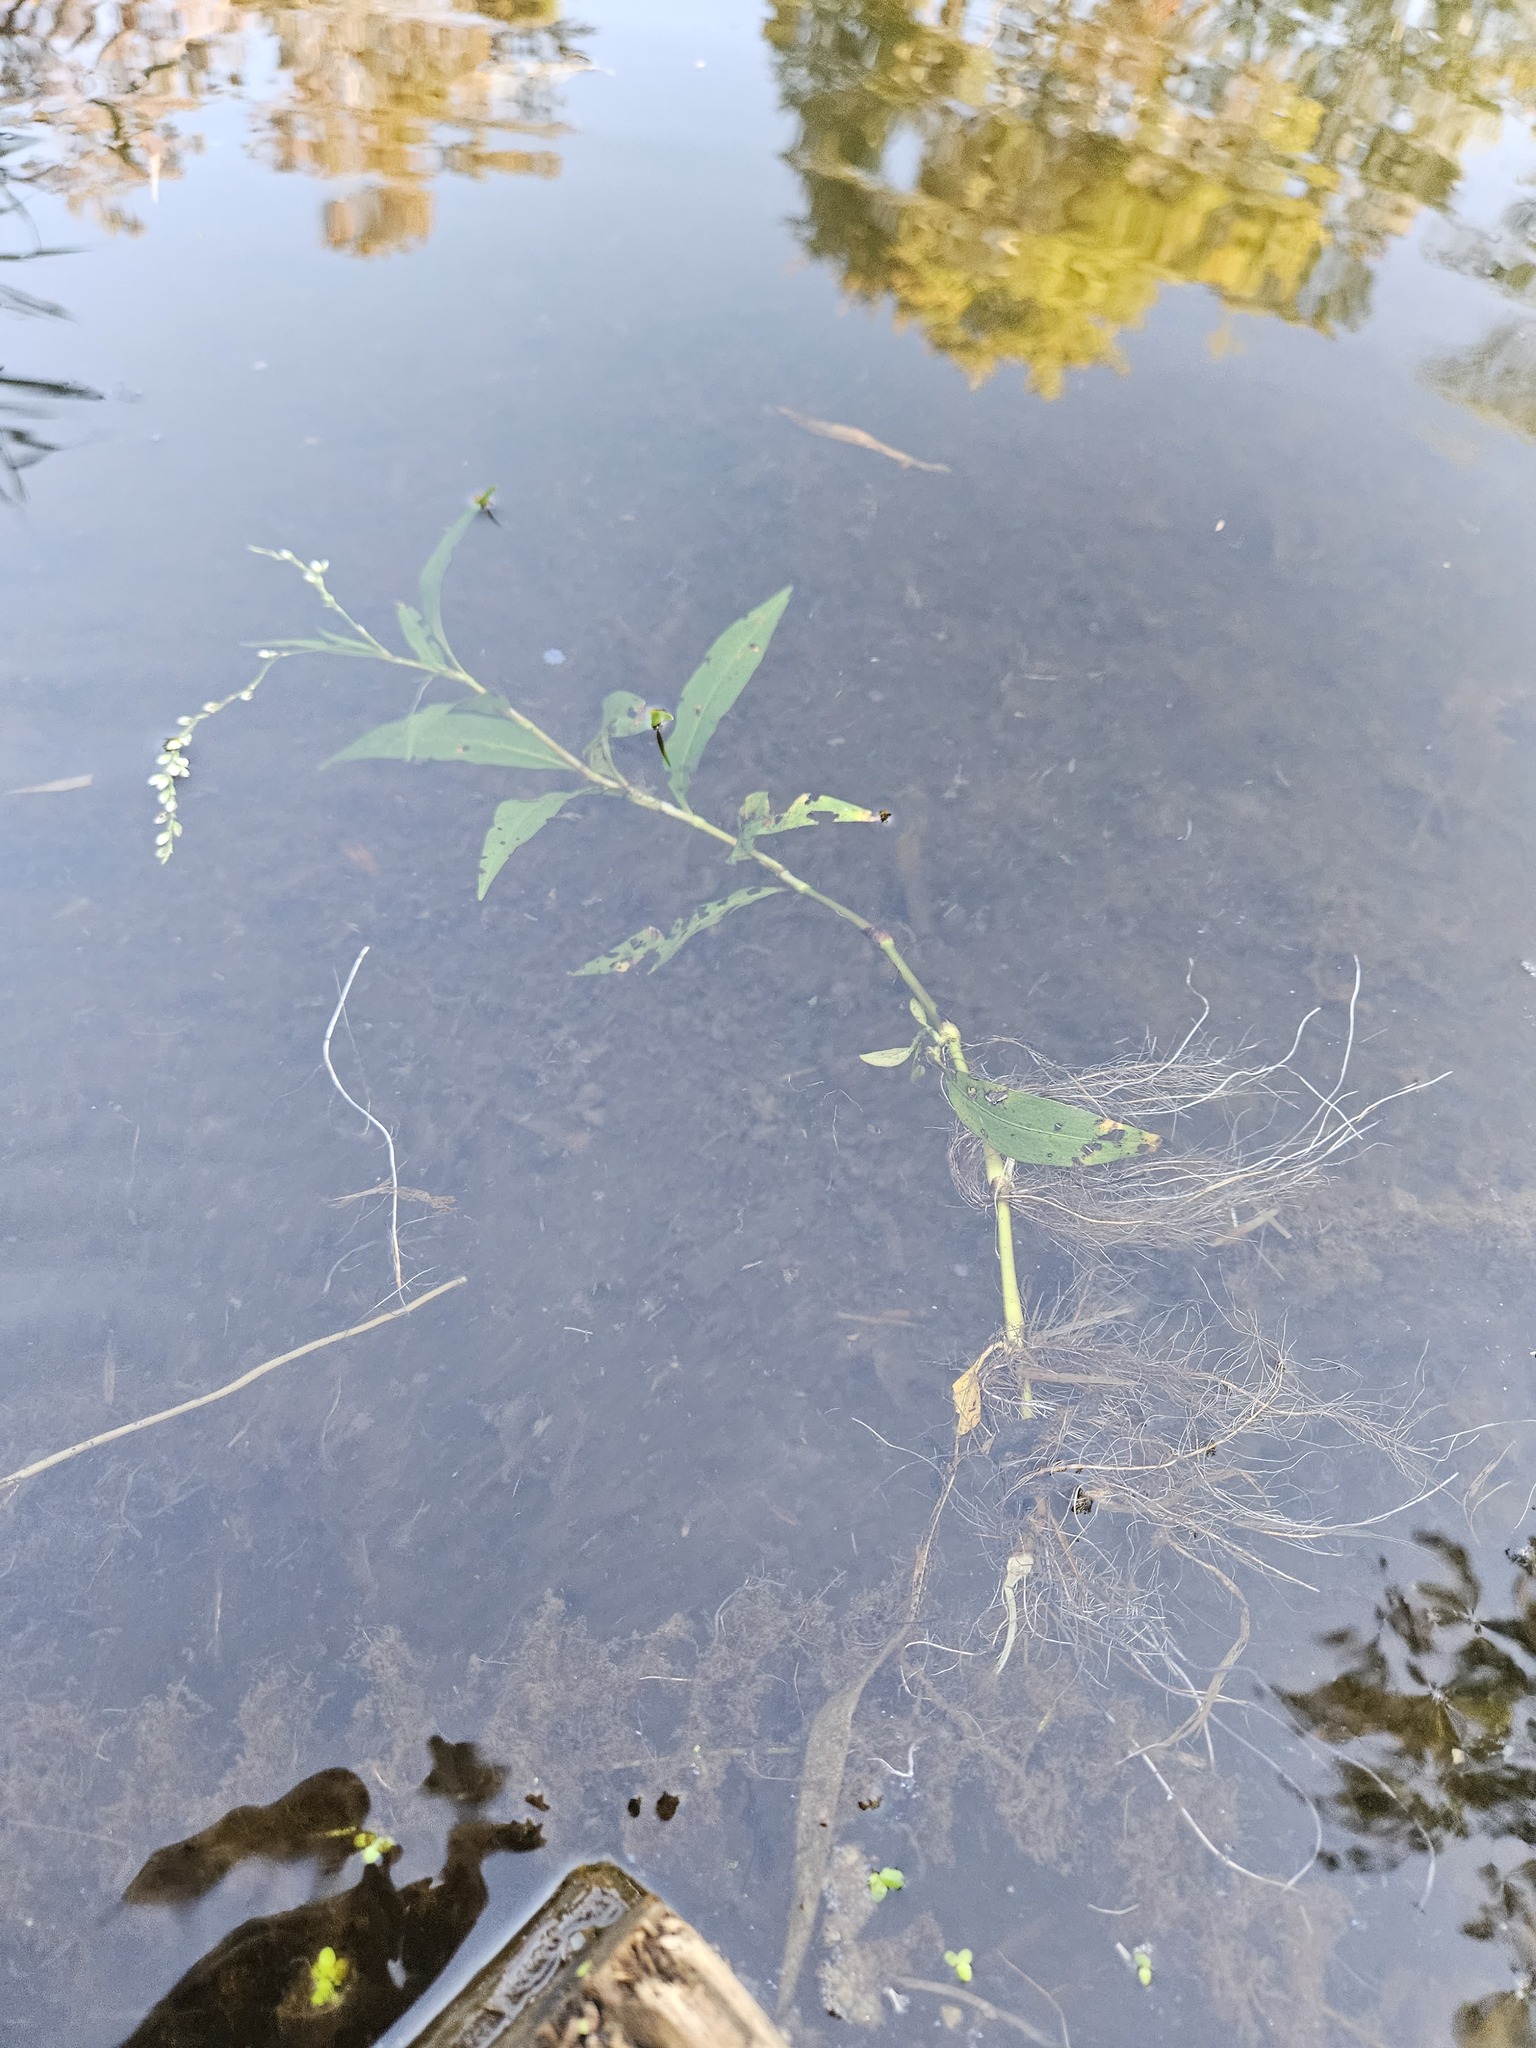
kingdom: Plantae
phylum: Tracheophyta
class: Magnoliopsida
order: Caryophyllales
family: Polygonaceae
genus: Persicaria
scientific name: Persicaria robustior
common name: Stout smartweed
